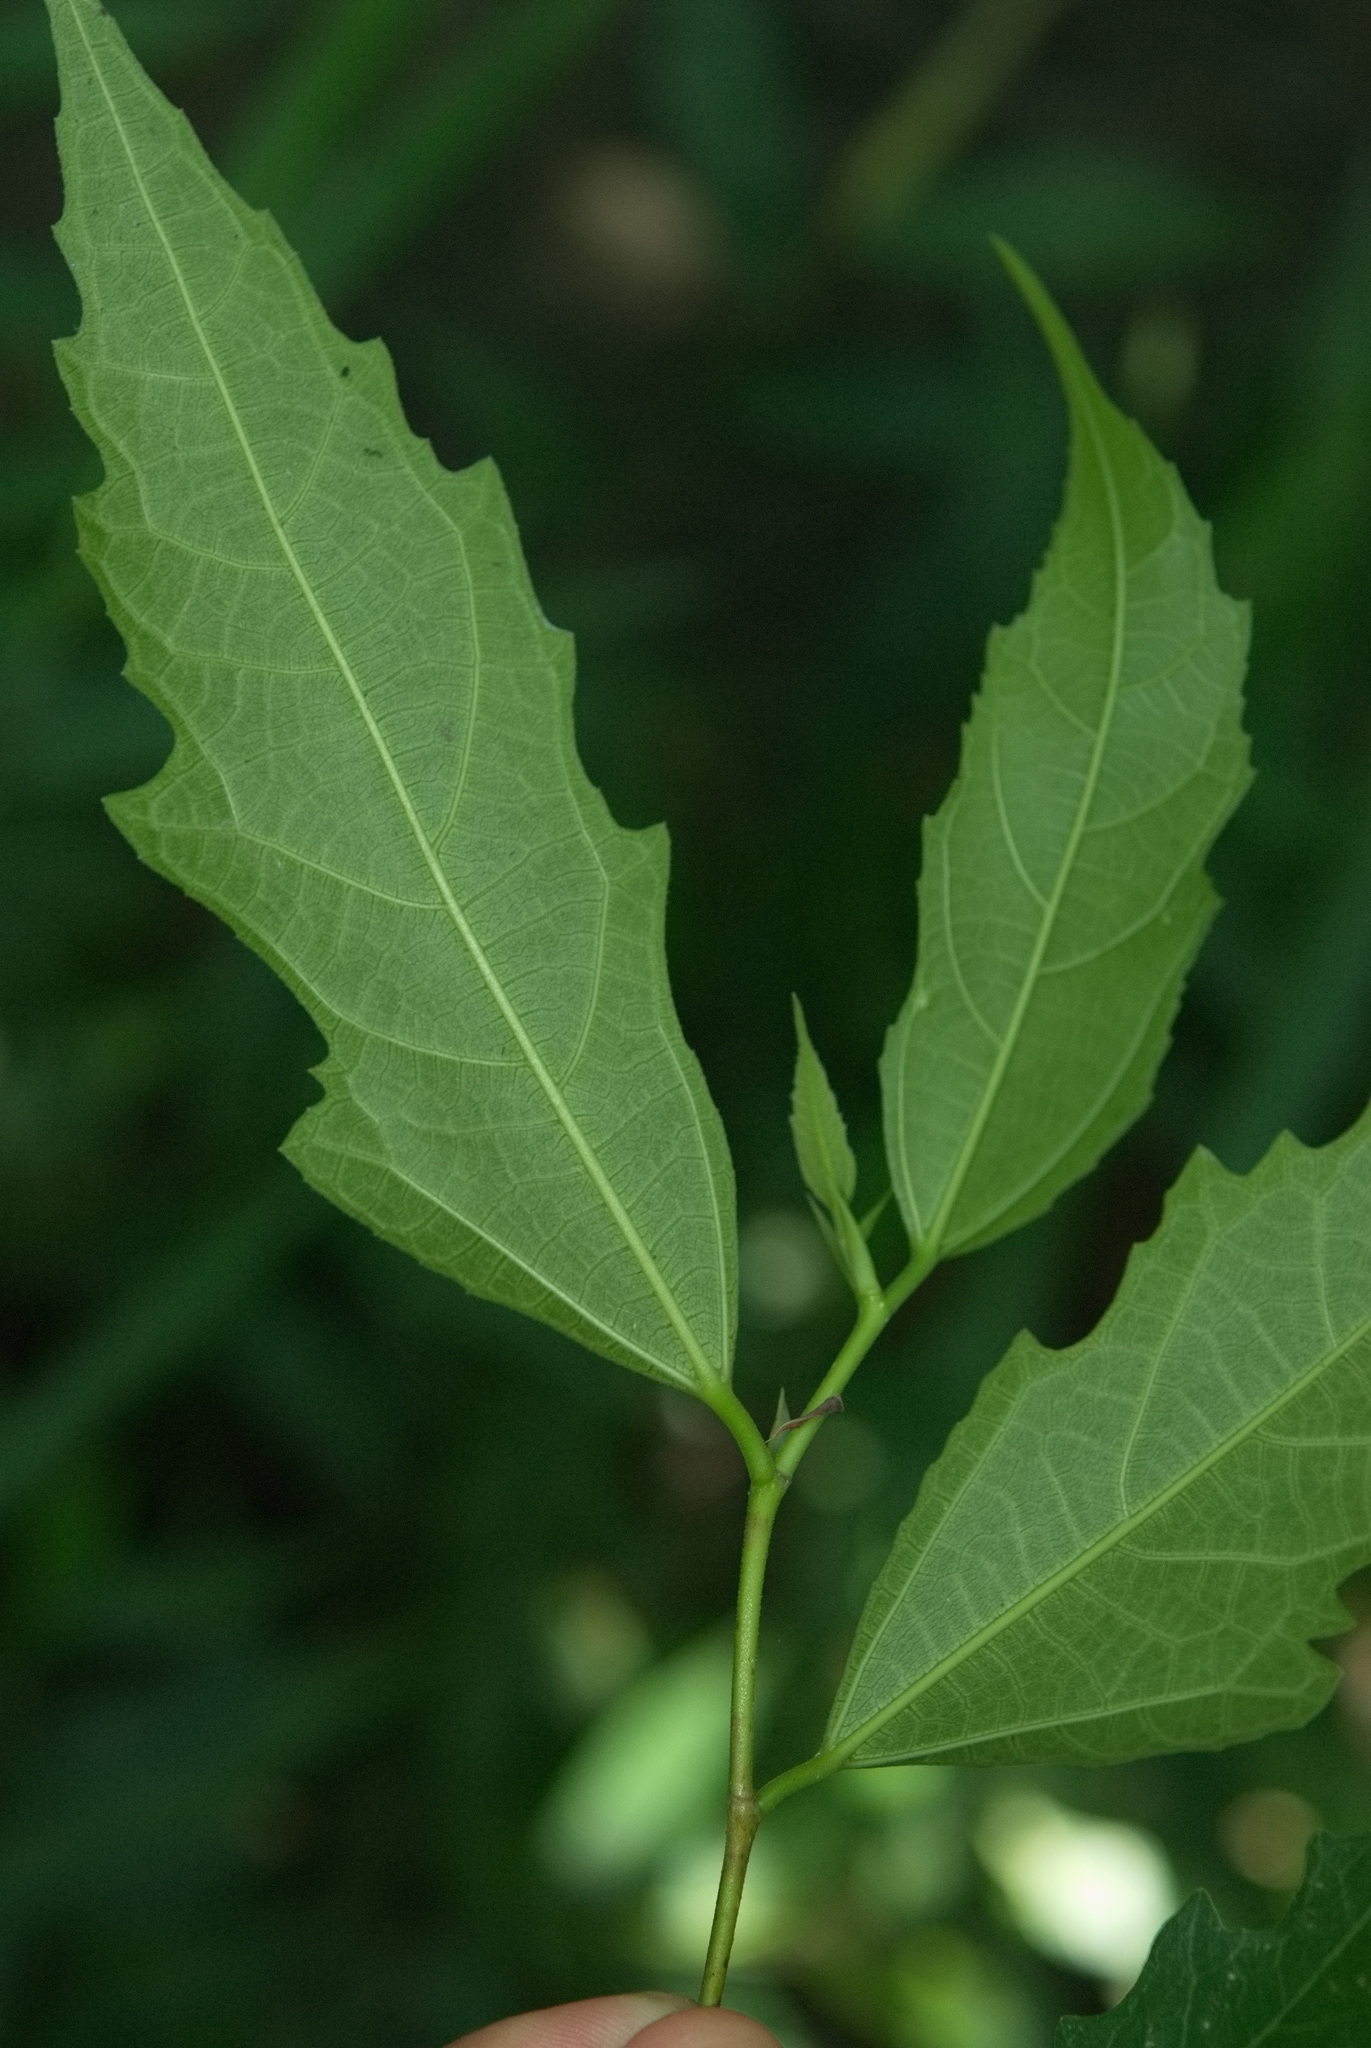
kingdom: Plantae
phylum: Tracheophyta
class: Magnoliopsida
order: Rosales
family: Moraceae
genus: Ficus
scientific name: Ficus ampelos
